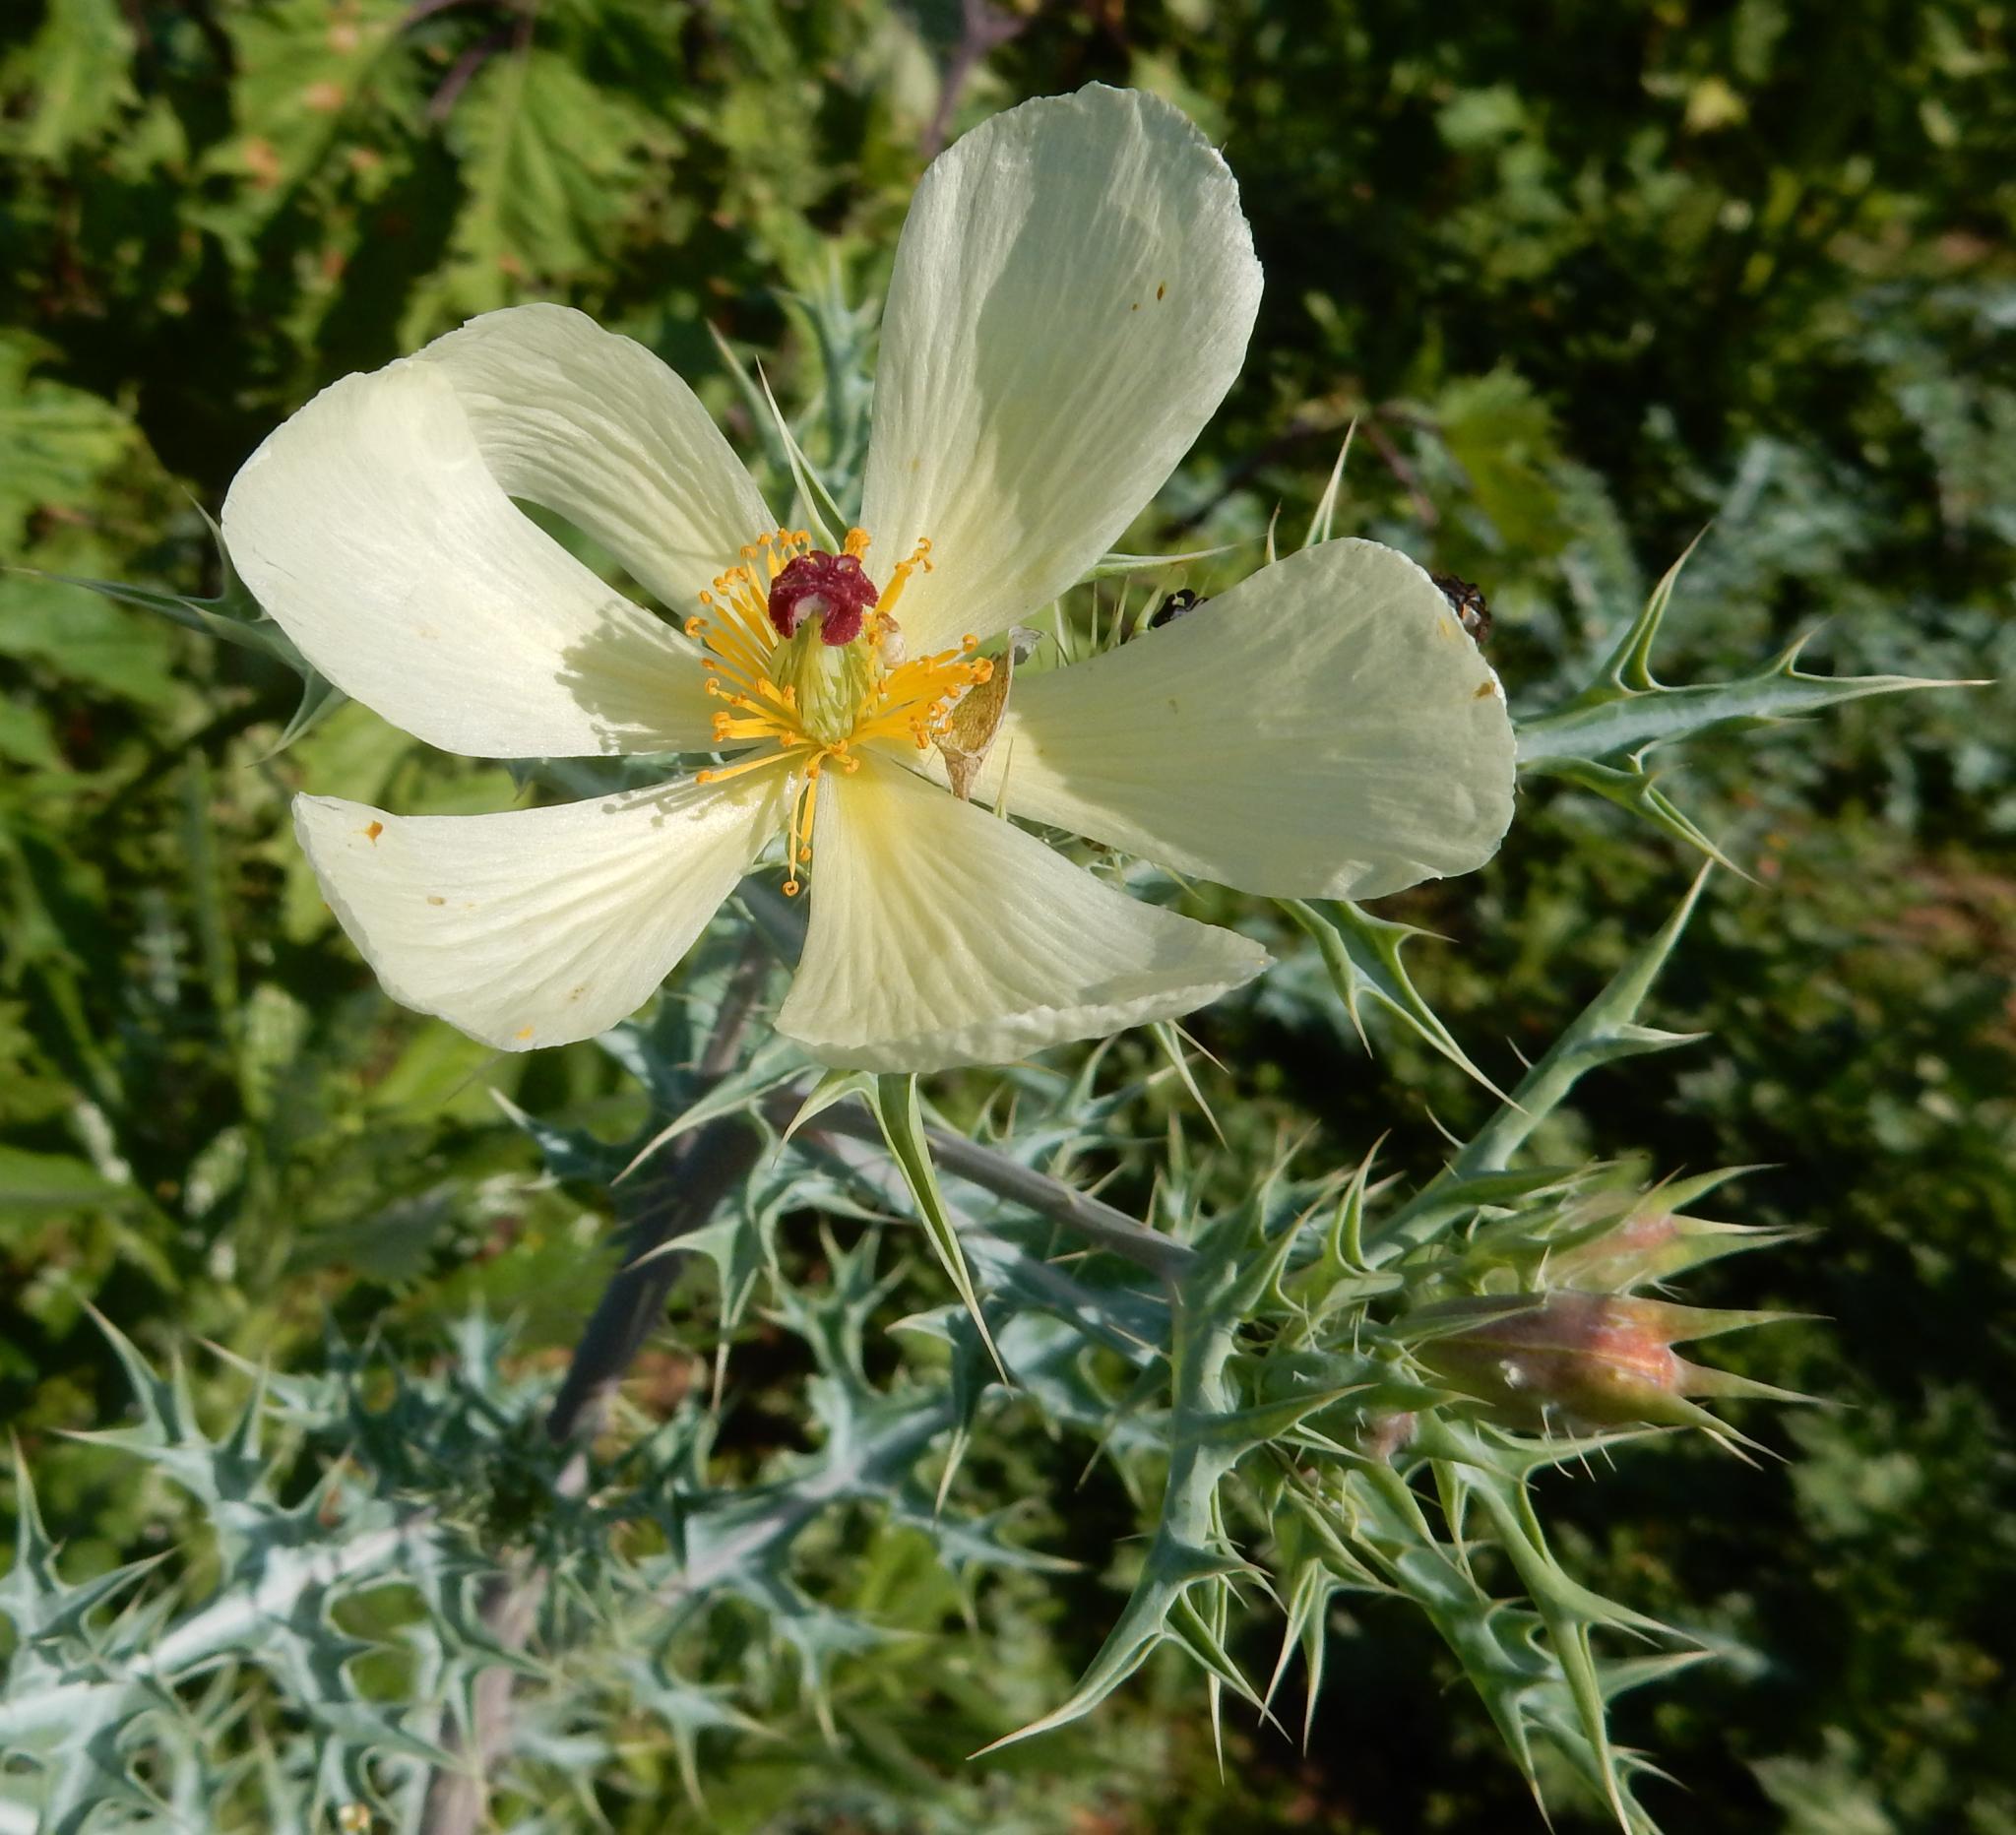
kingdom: Plantae
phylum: Tracheophyta
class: Magnoliopsida
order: Ranunculales
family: Papaveraceae
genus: Argemone
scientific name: Argemone ochroleuca
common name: White-flower mexican-poppy
